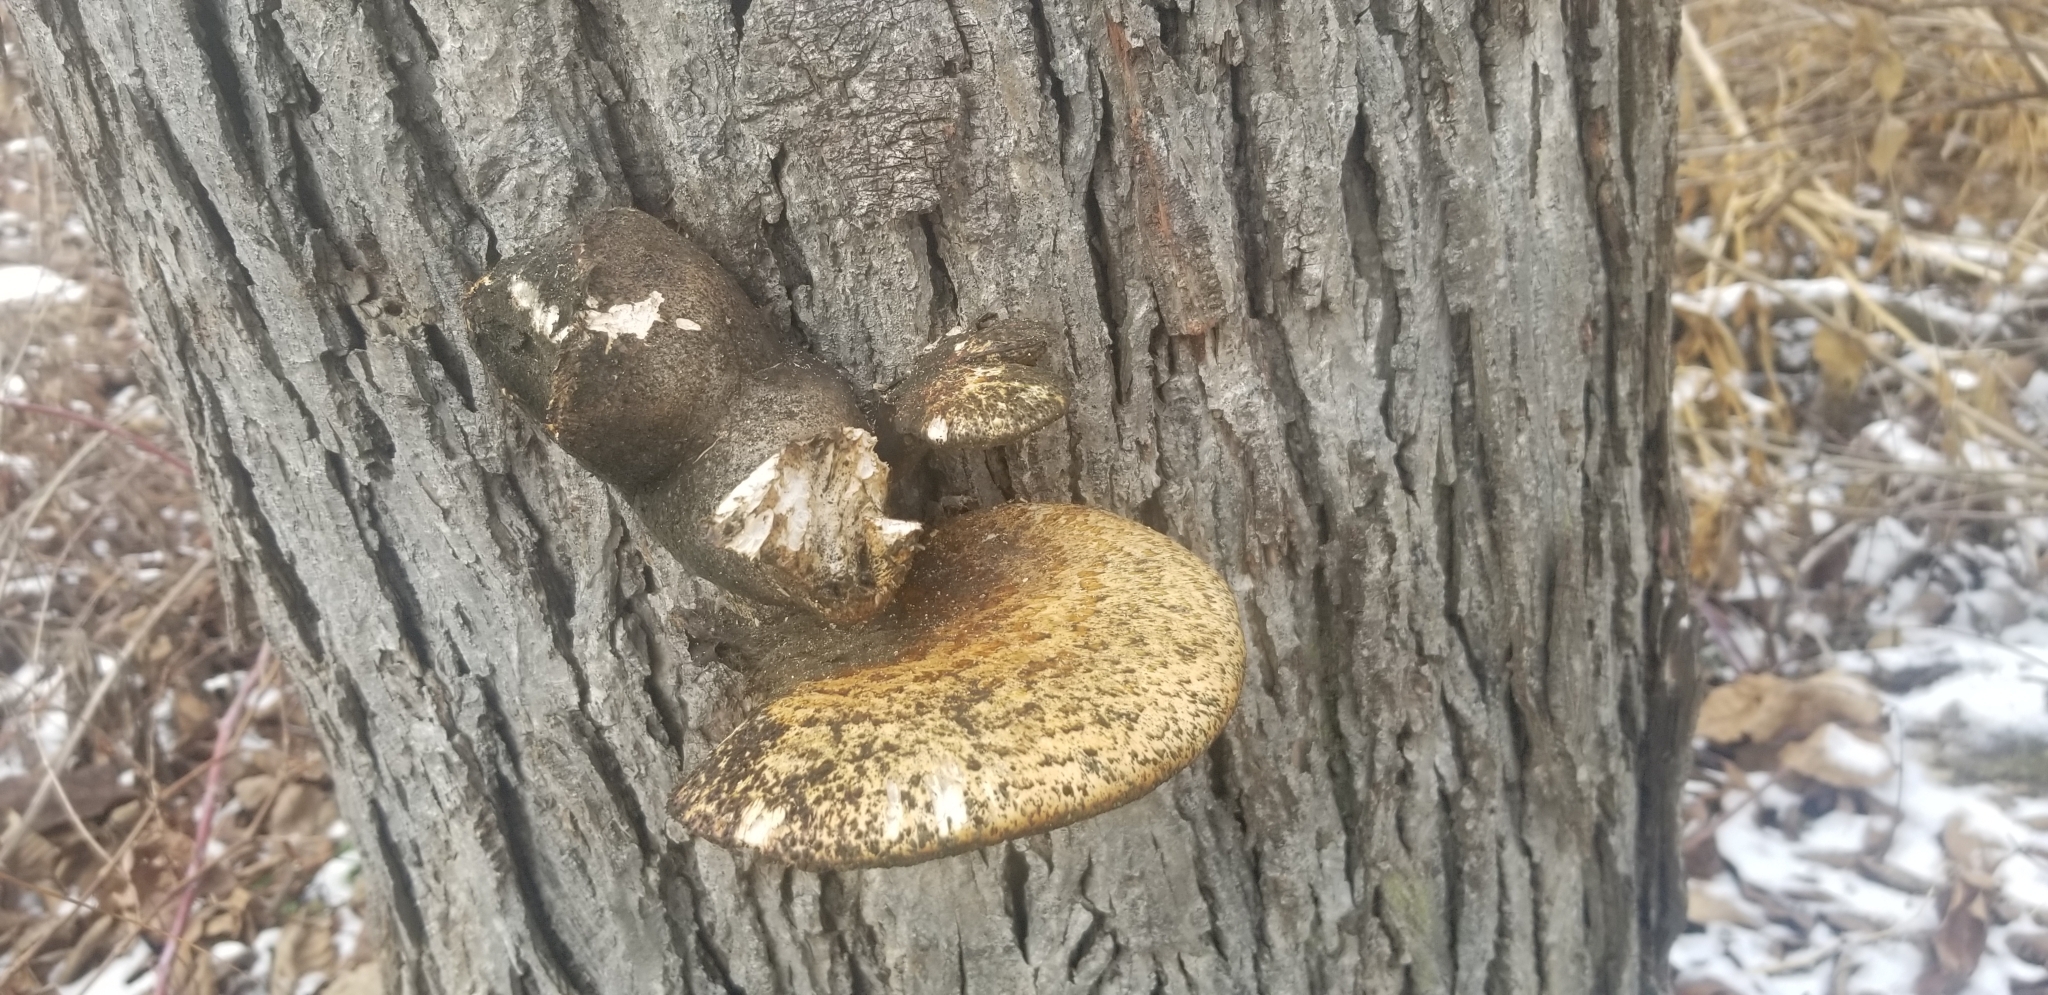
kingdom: Fungi
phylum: Basidiomycota
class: Agaricomycetes
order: Polyporales
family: Polyporaceae
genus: Cerioporus
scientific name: Cerioporus squamosus
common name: Dryad's saddle
